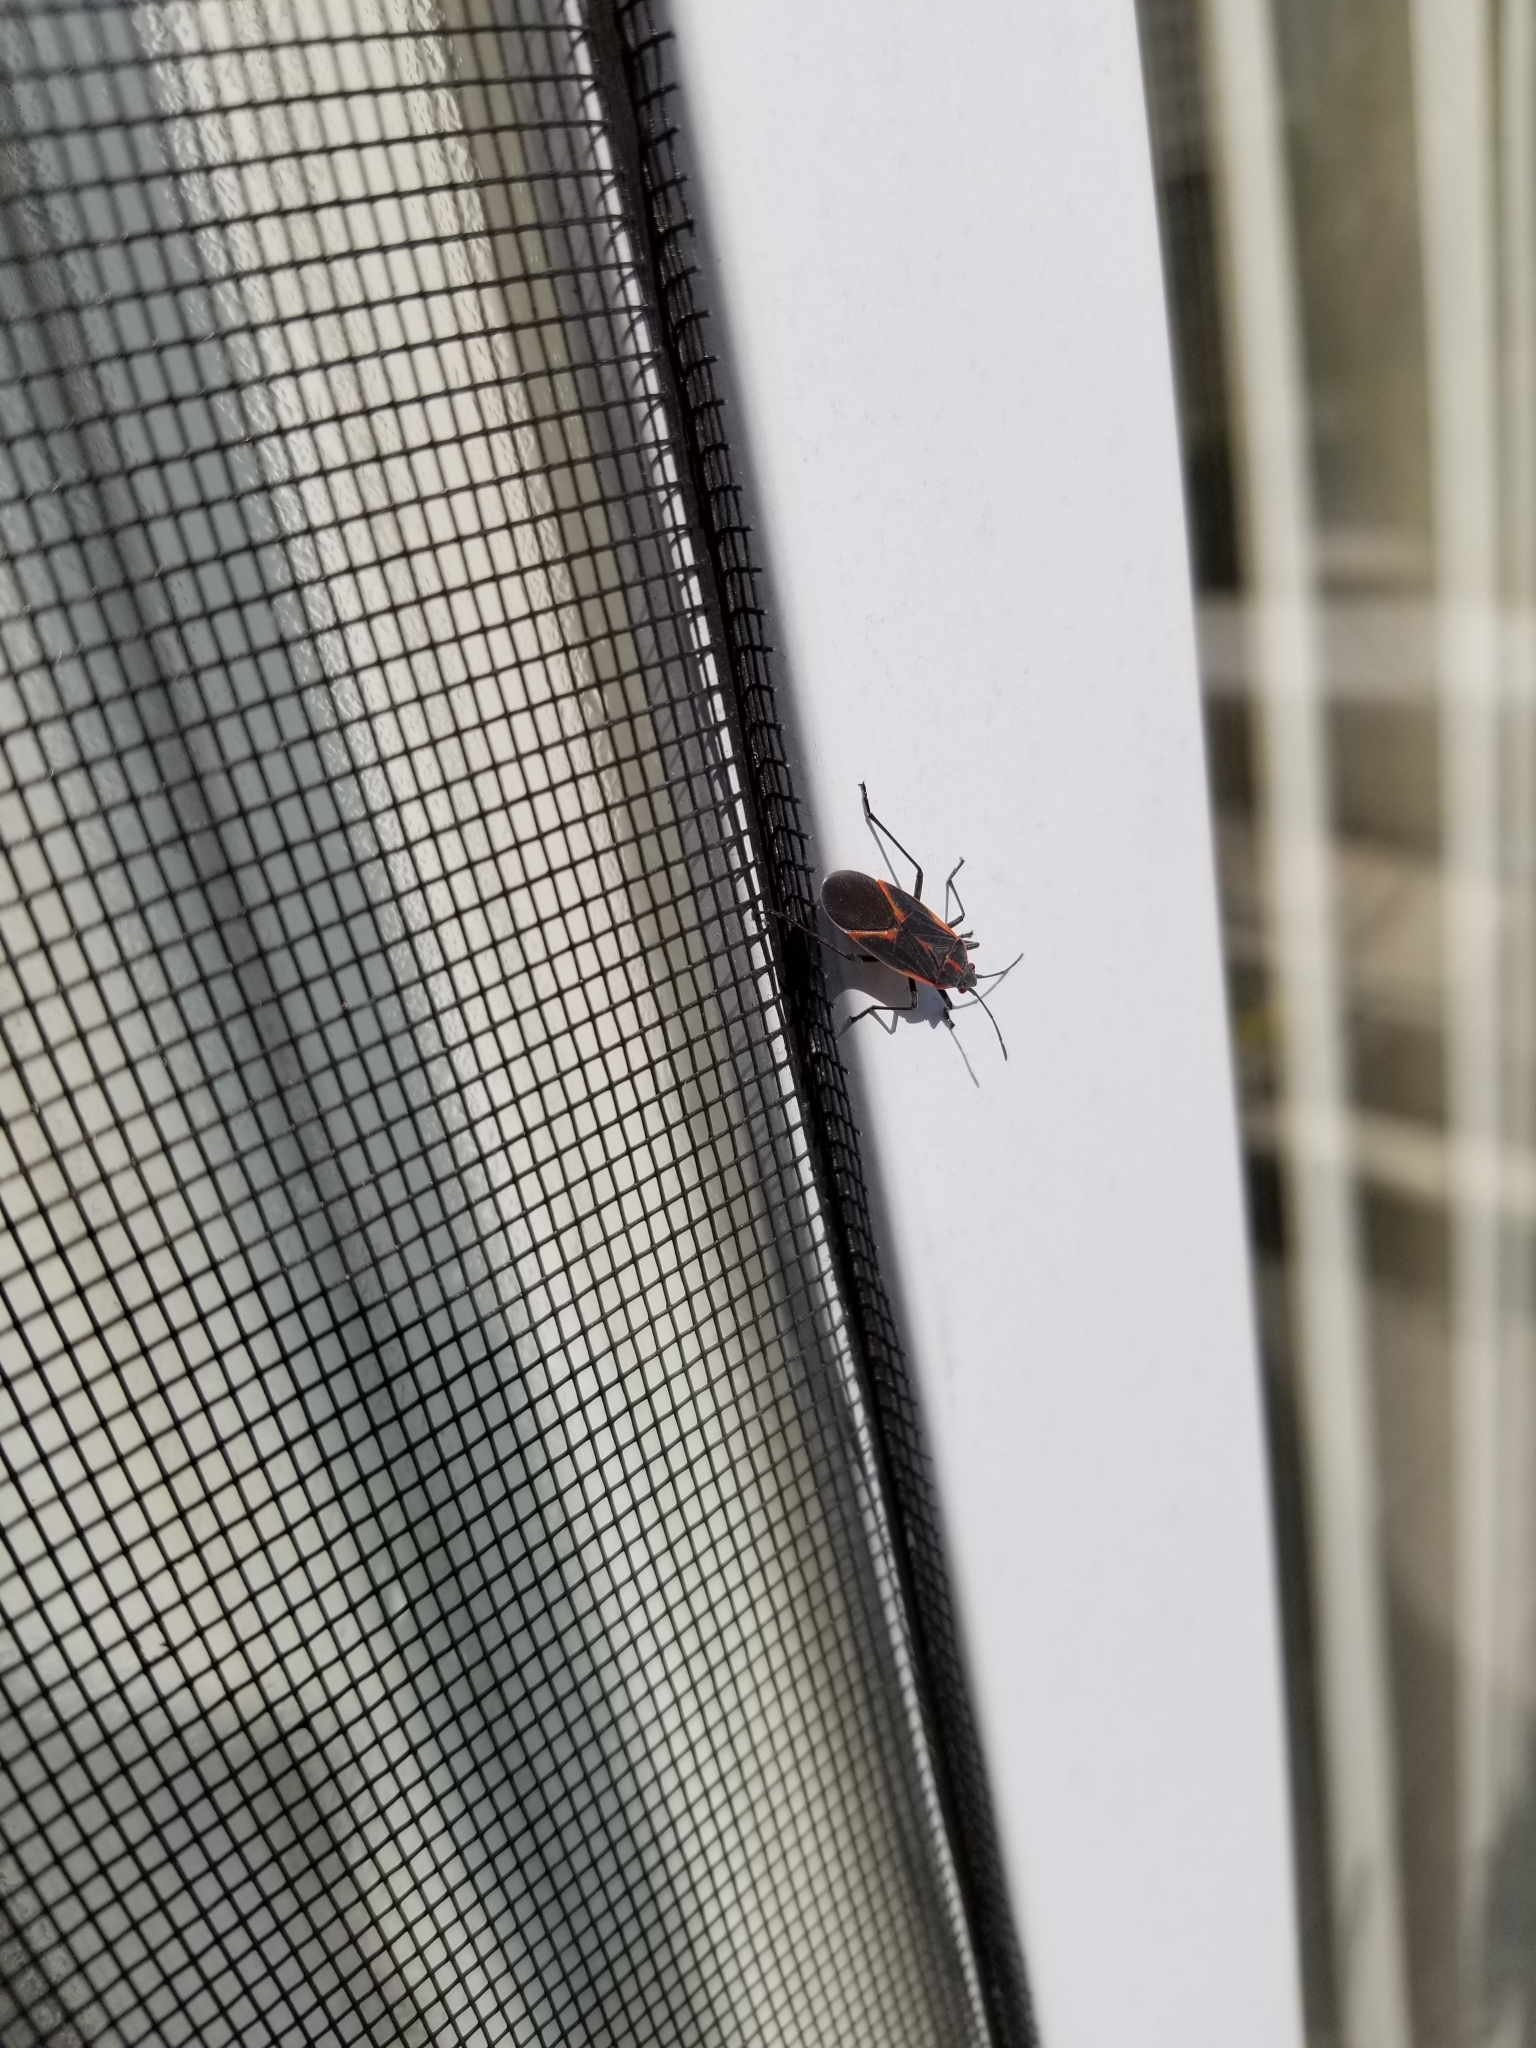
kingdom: Animalia
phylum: Arthropoda
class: Insecta
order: Hemiptera
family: Rhopalidae
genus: Boisea
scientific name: Boisea trivittata
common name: Boxelder bug
